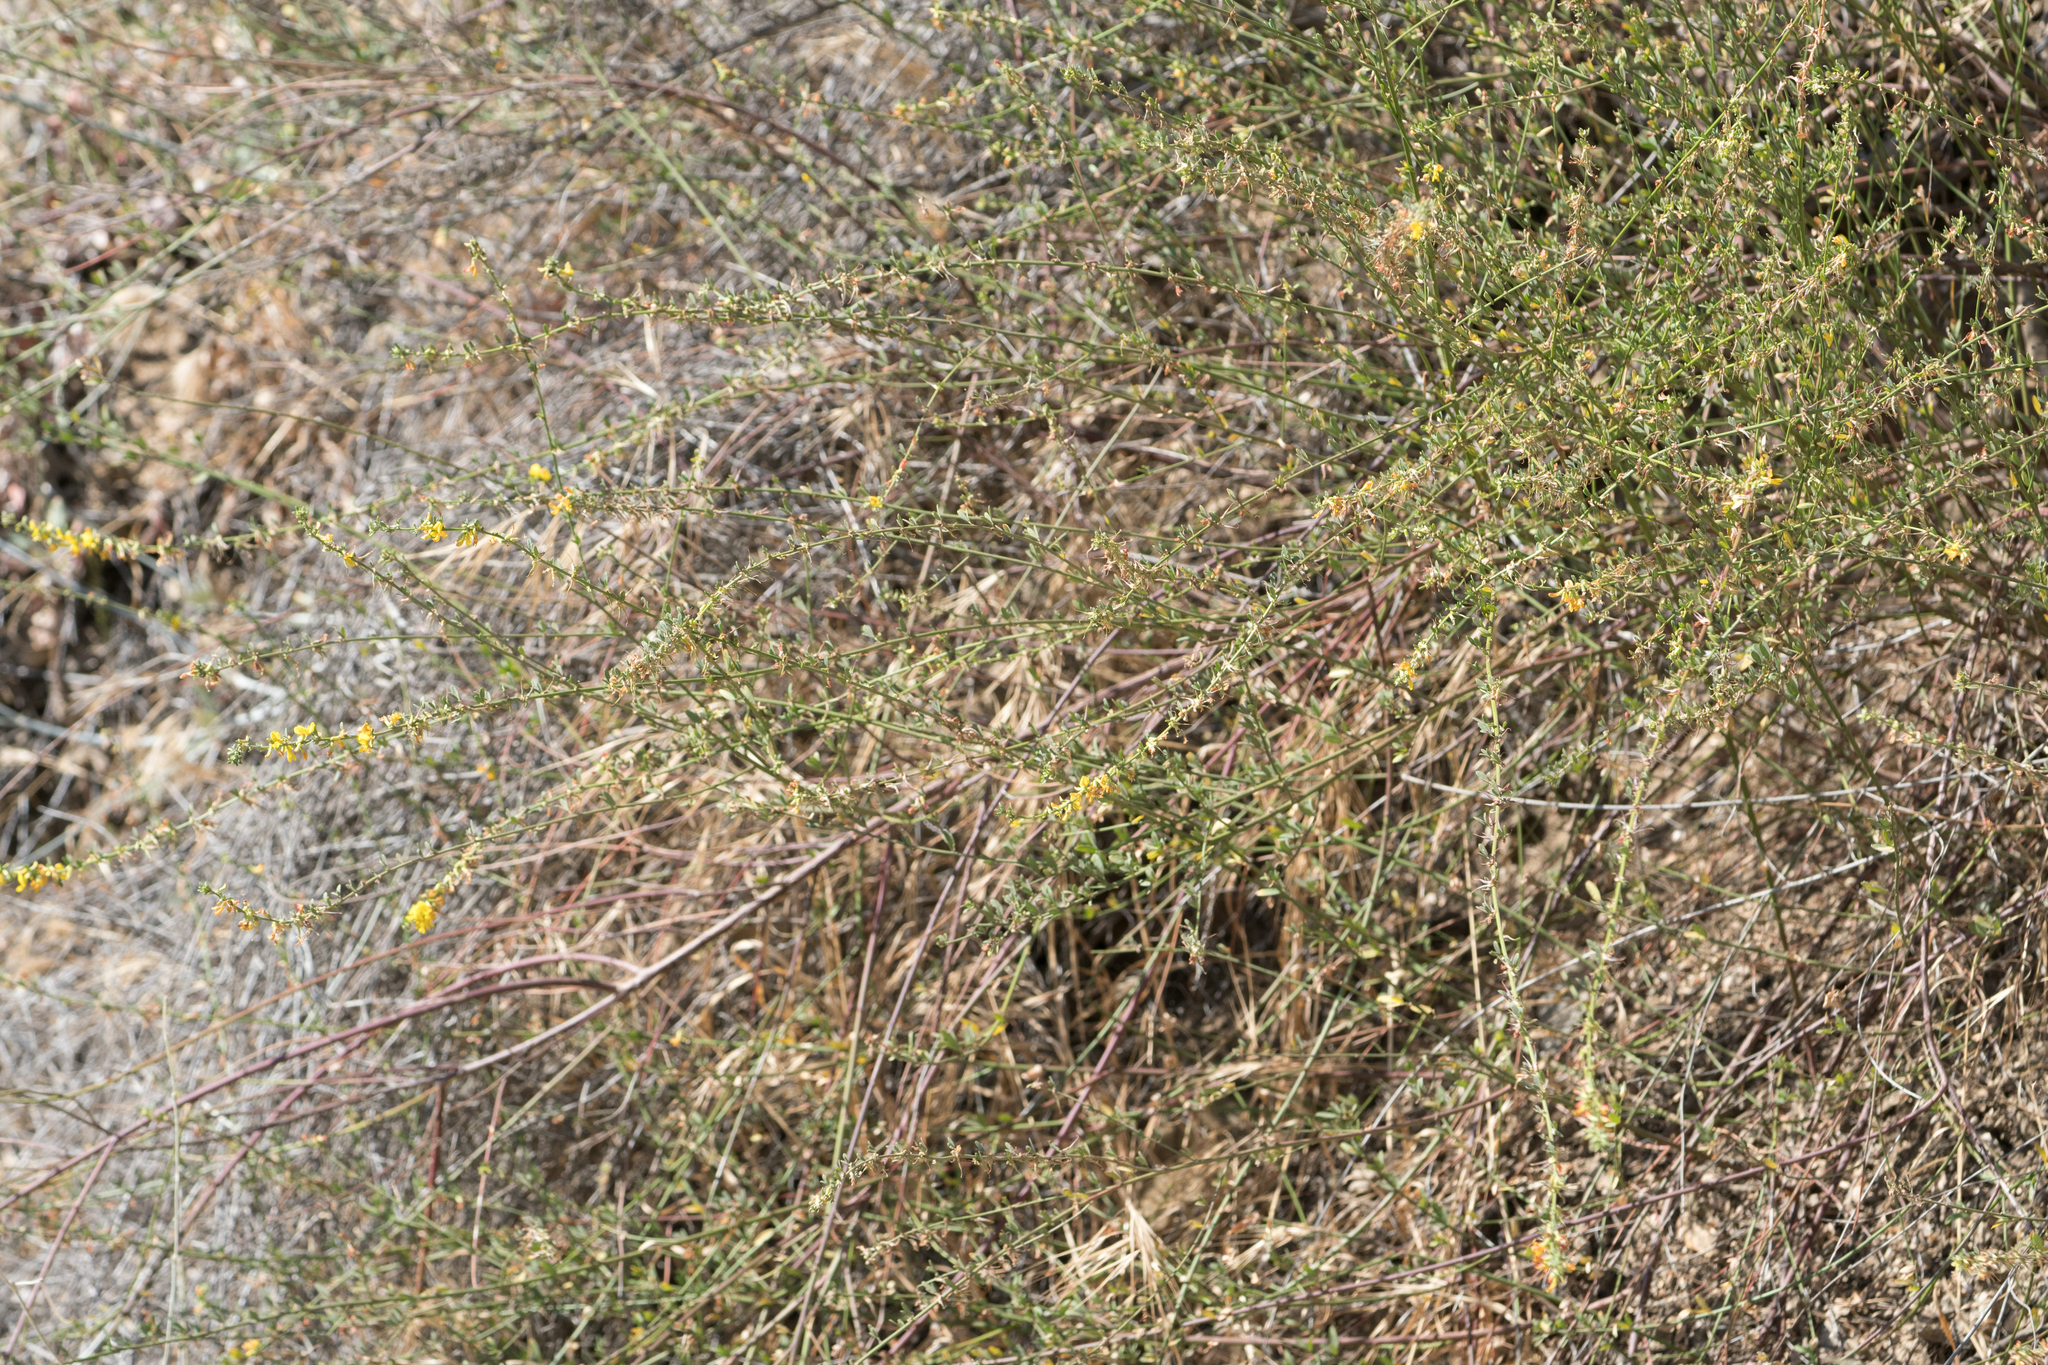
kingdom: Plantae
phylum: Tracheophyta
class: Magnoliopsida
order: Fabales
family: Fabaceae
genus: Acmispon
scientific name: Acmispon glaber
